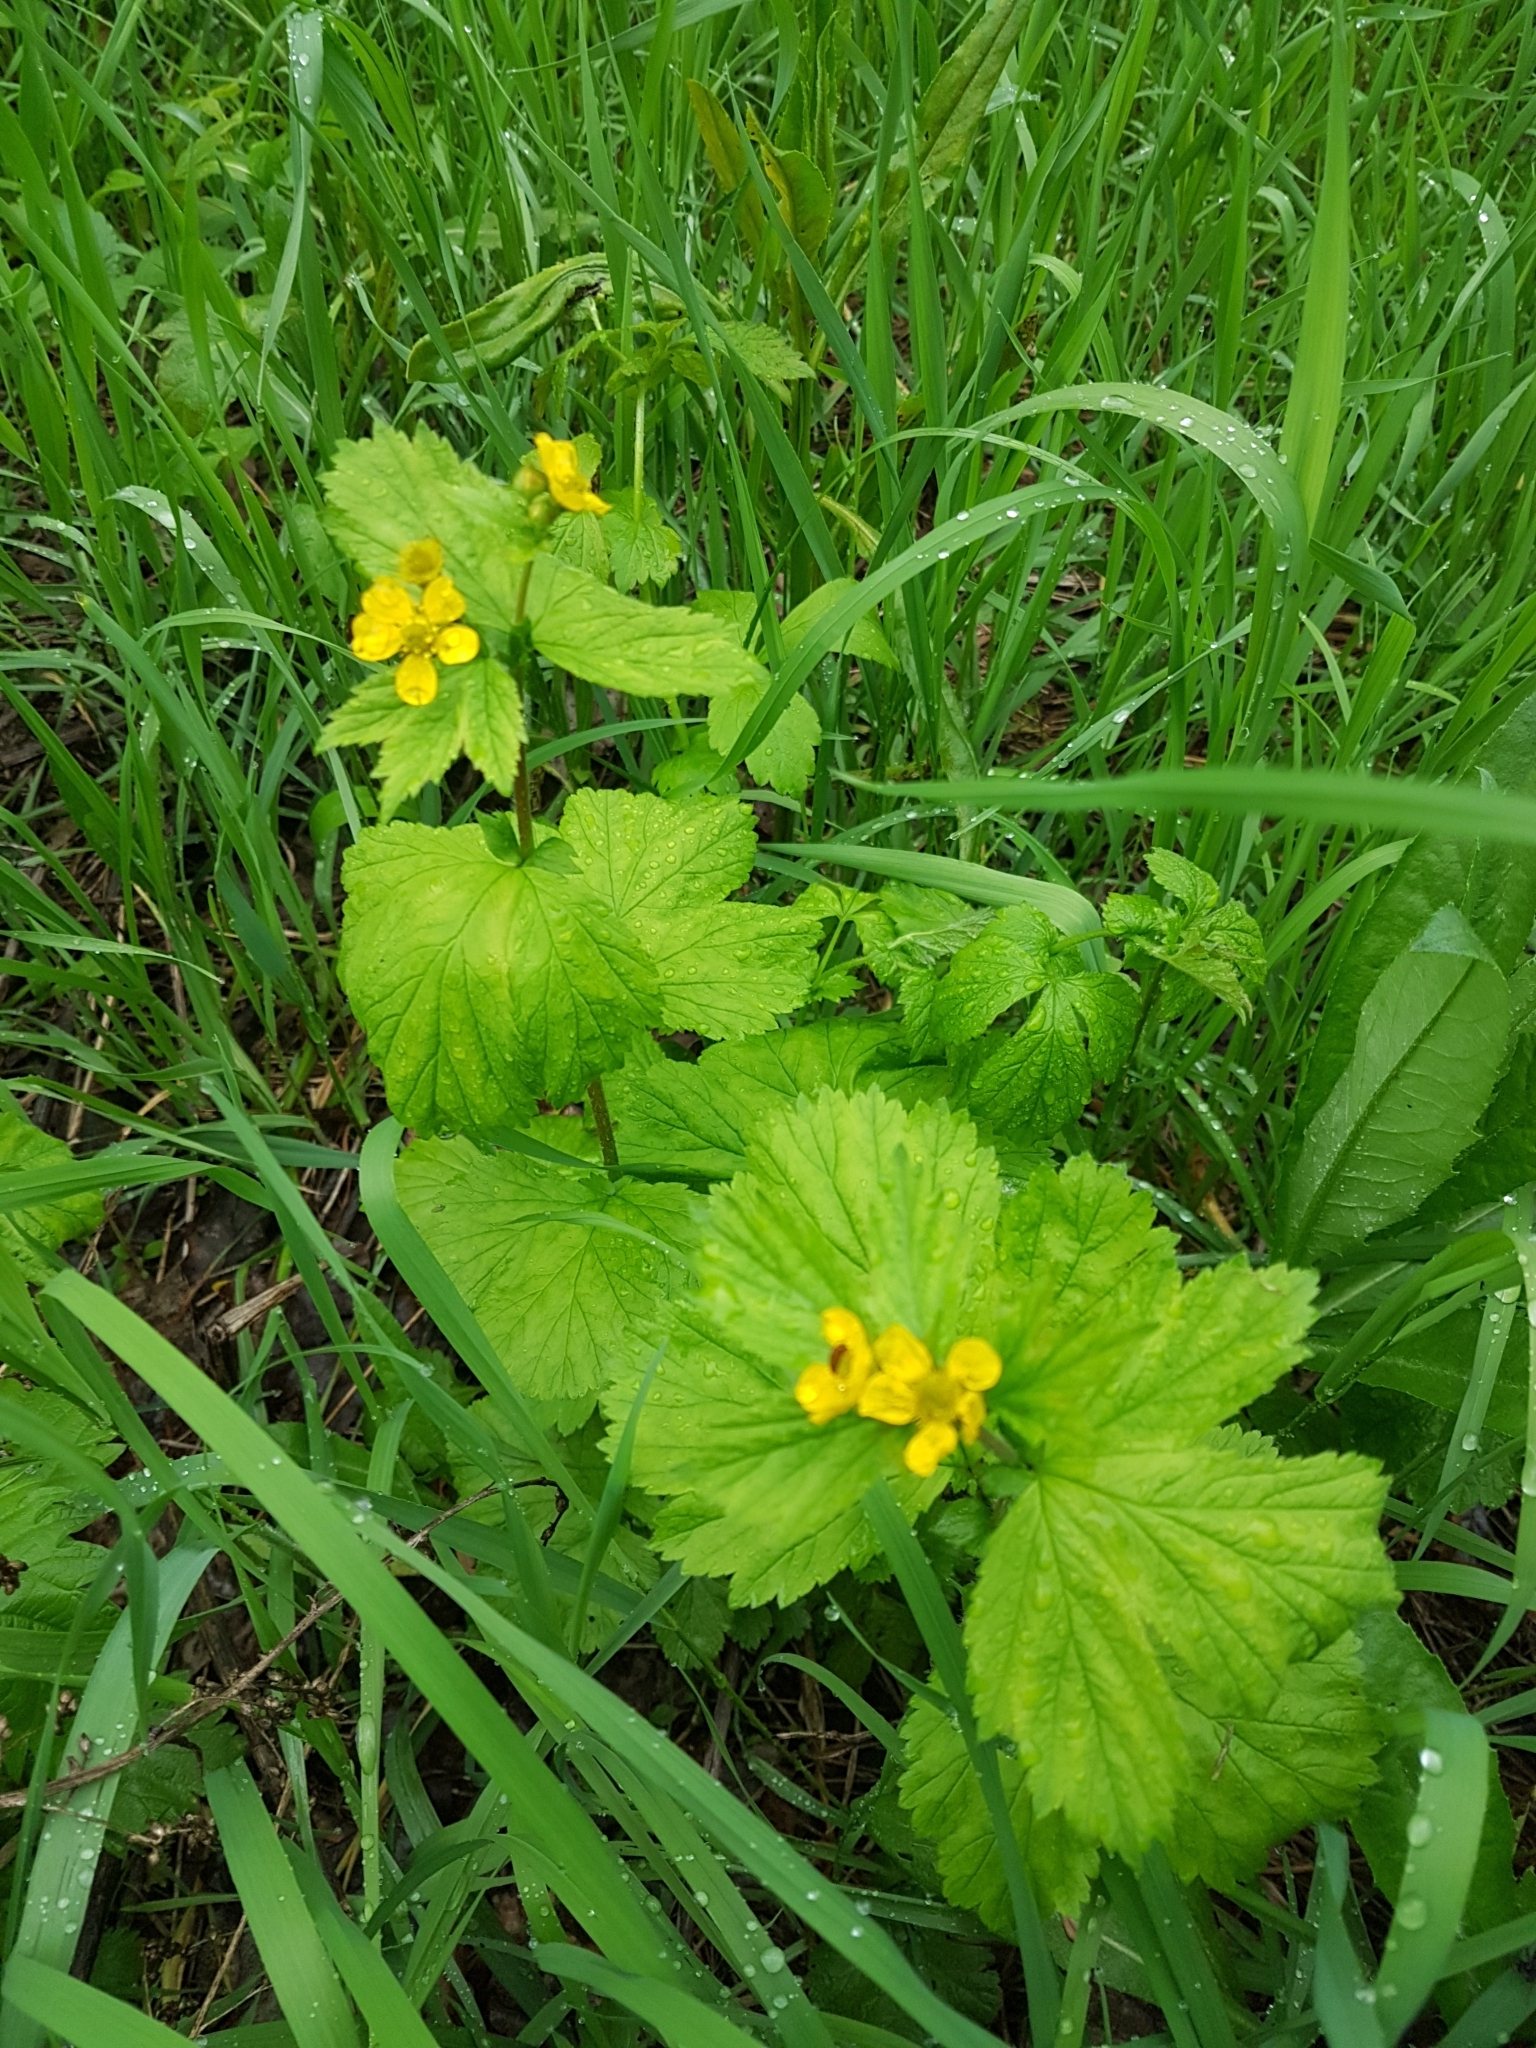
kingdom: Plantae
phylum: Tracheophyta
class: Magnoliopsida
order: Rosales
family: Rosaceae
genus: Geum
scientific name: Geum macrophyllum
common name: Large-leaved avens
